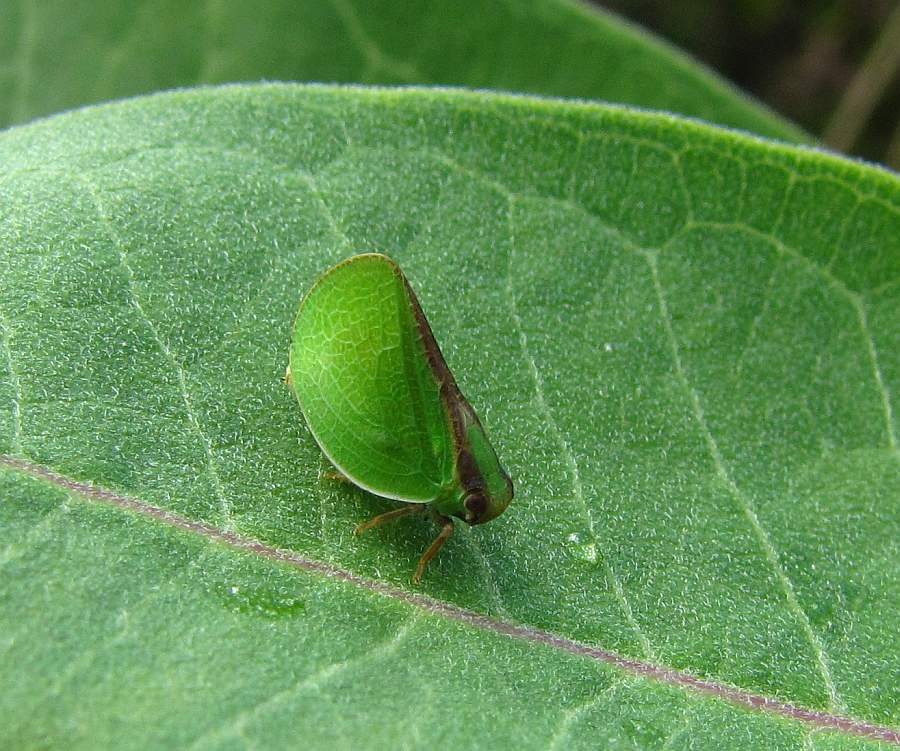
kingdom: Animalia
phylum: Arthropoda
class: Insecta
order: Hemiptera
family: Acanaloniidae
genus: Acanalonia
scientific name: Acanalonia bivittata
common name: Two-striped planthopper
